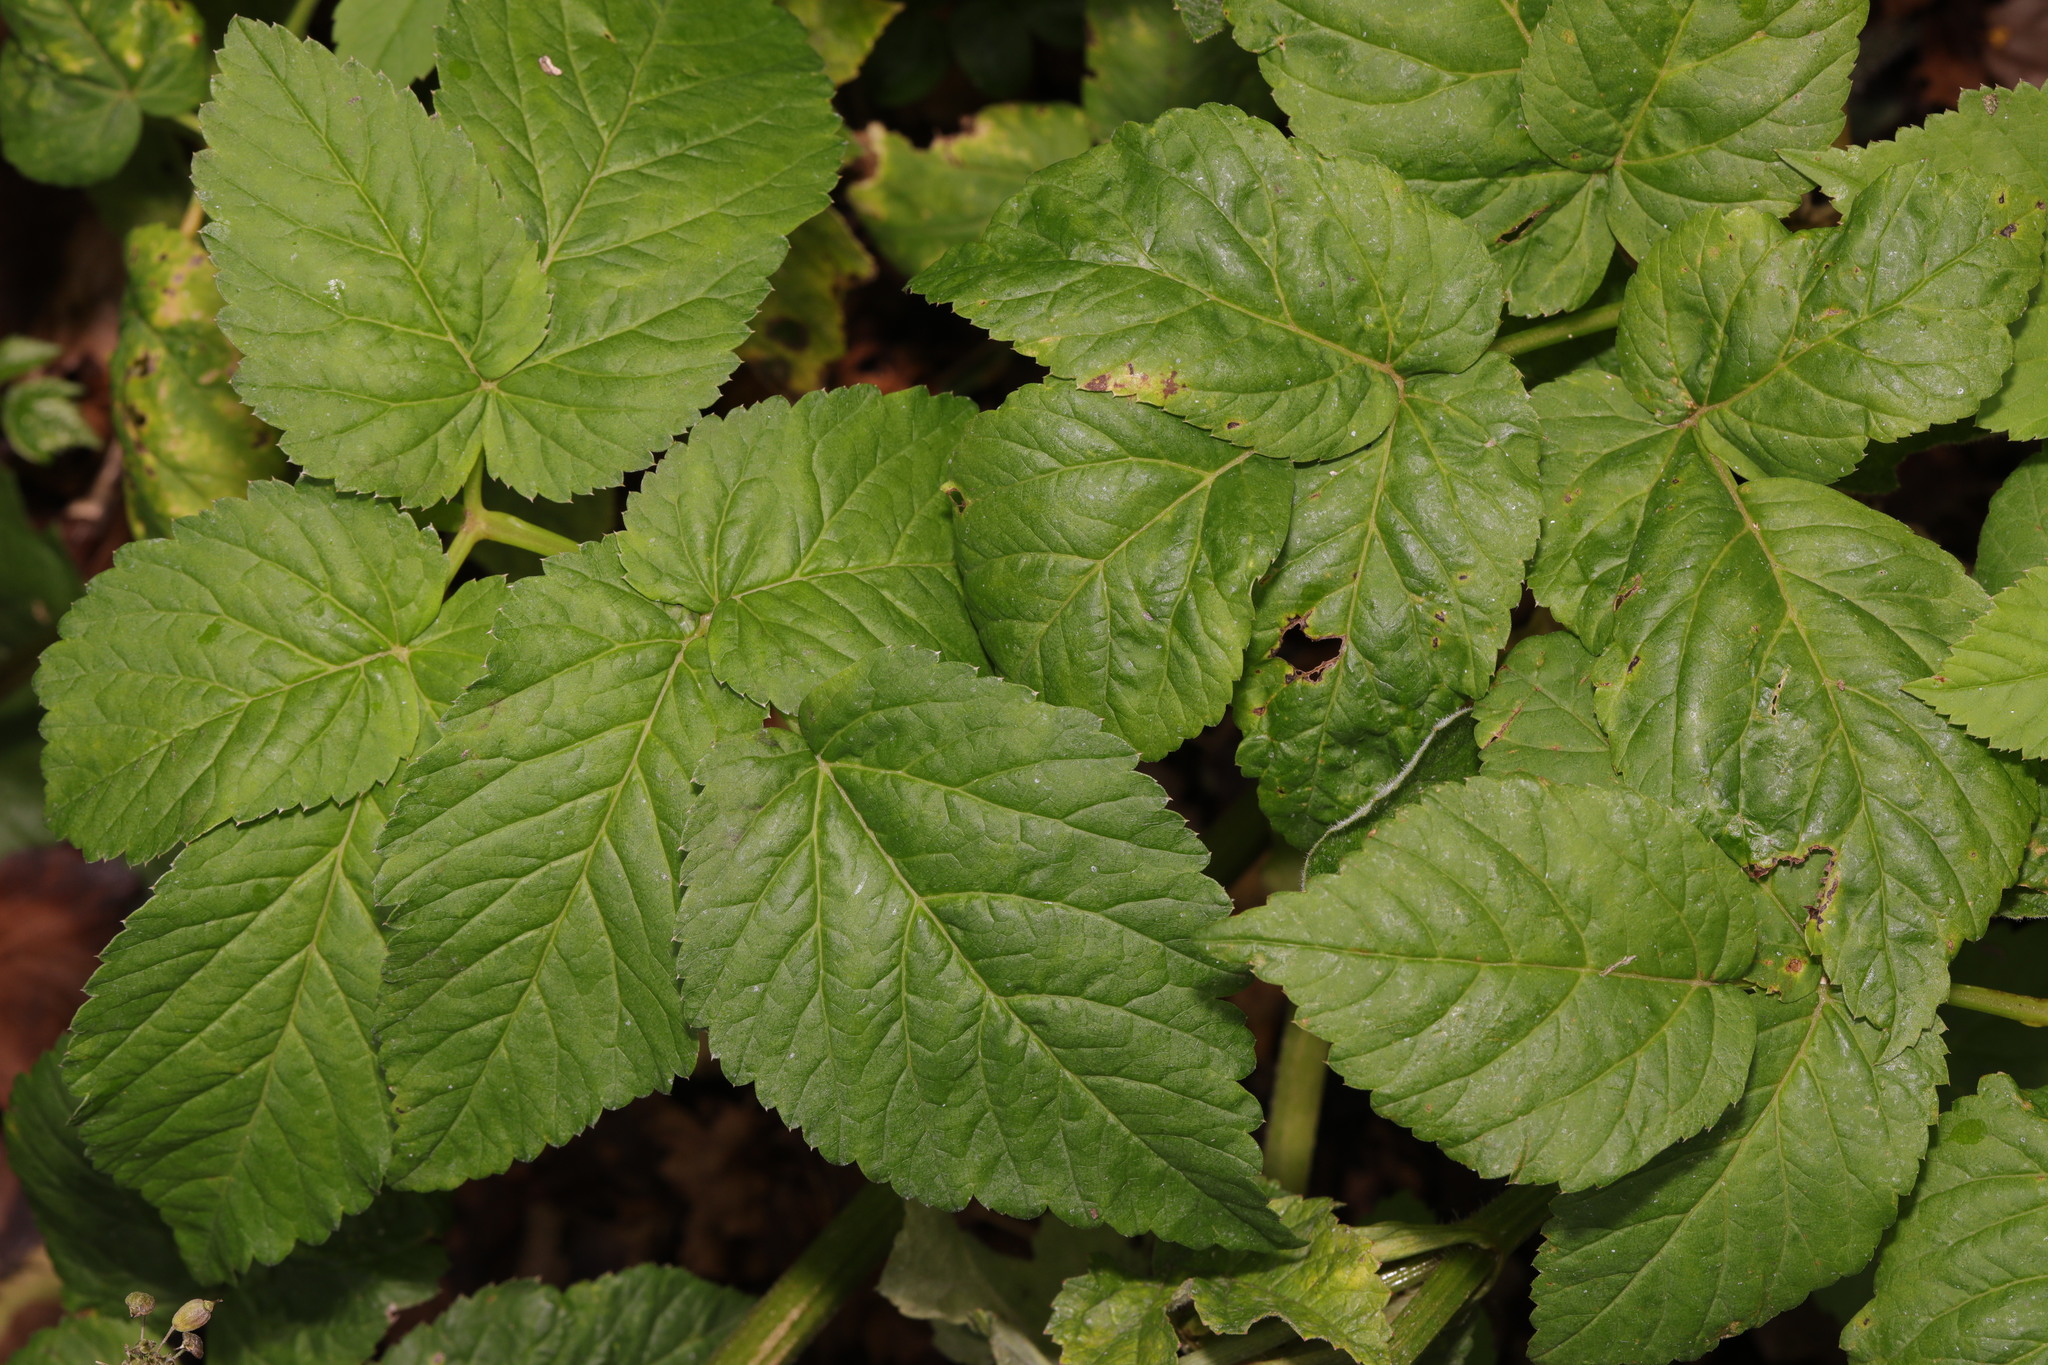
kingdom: Plantae
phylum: Tracheophyta
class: Magnoliopsida
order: Apiales
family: Apiaceae
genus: Aegopodium
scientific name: Aegopodium podagraria
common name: Ground-elder
